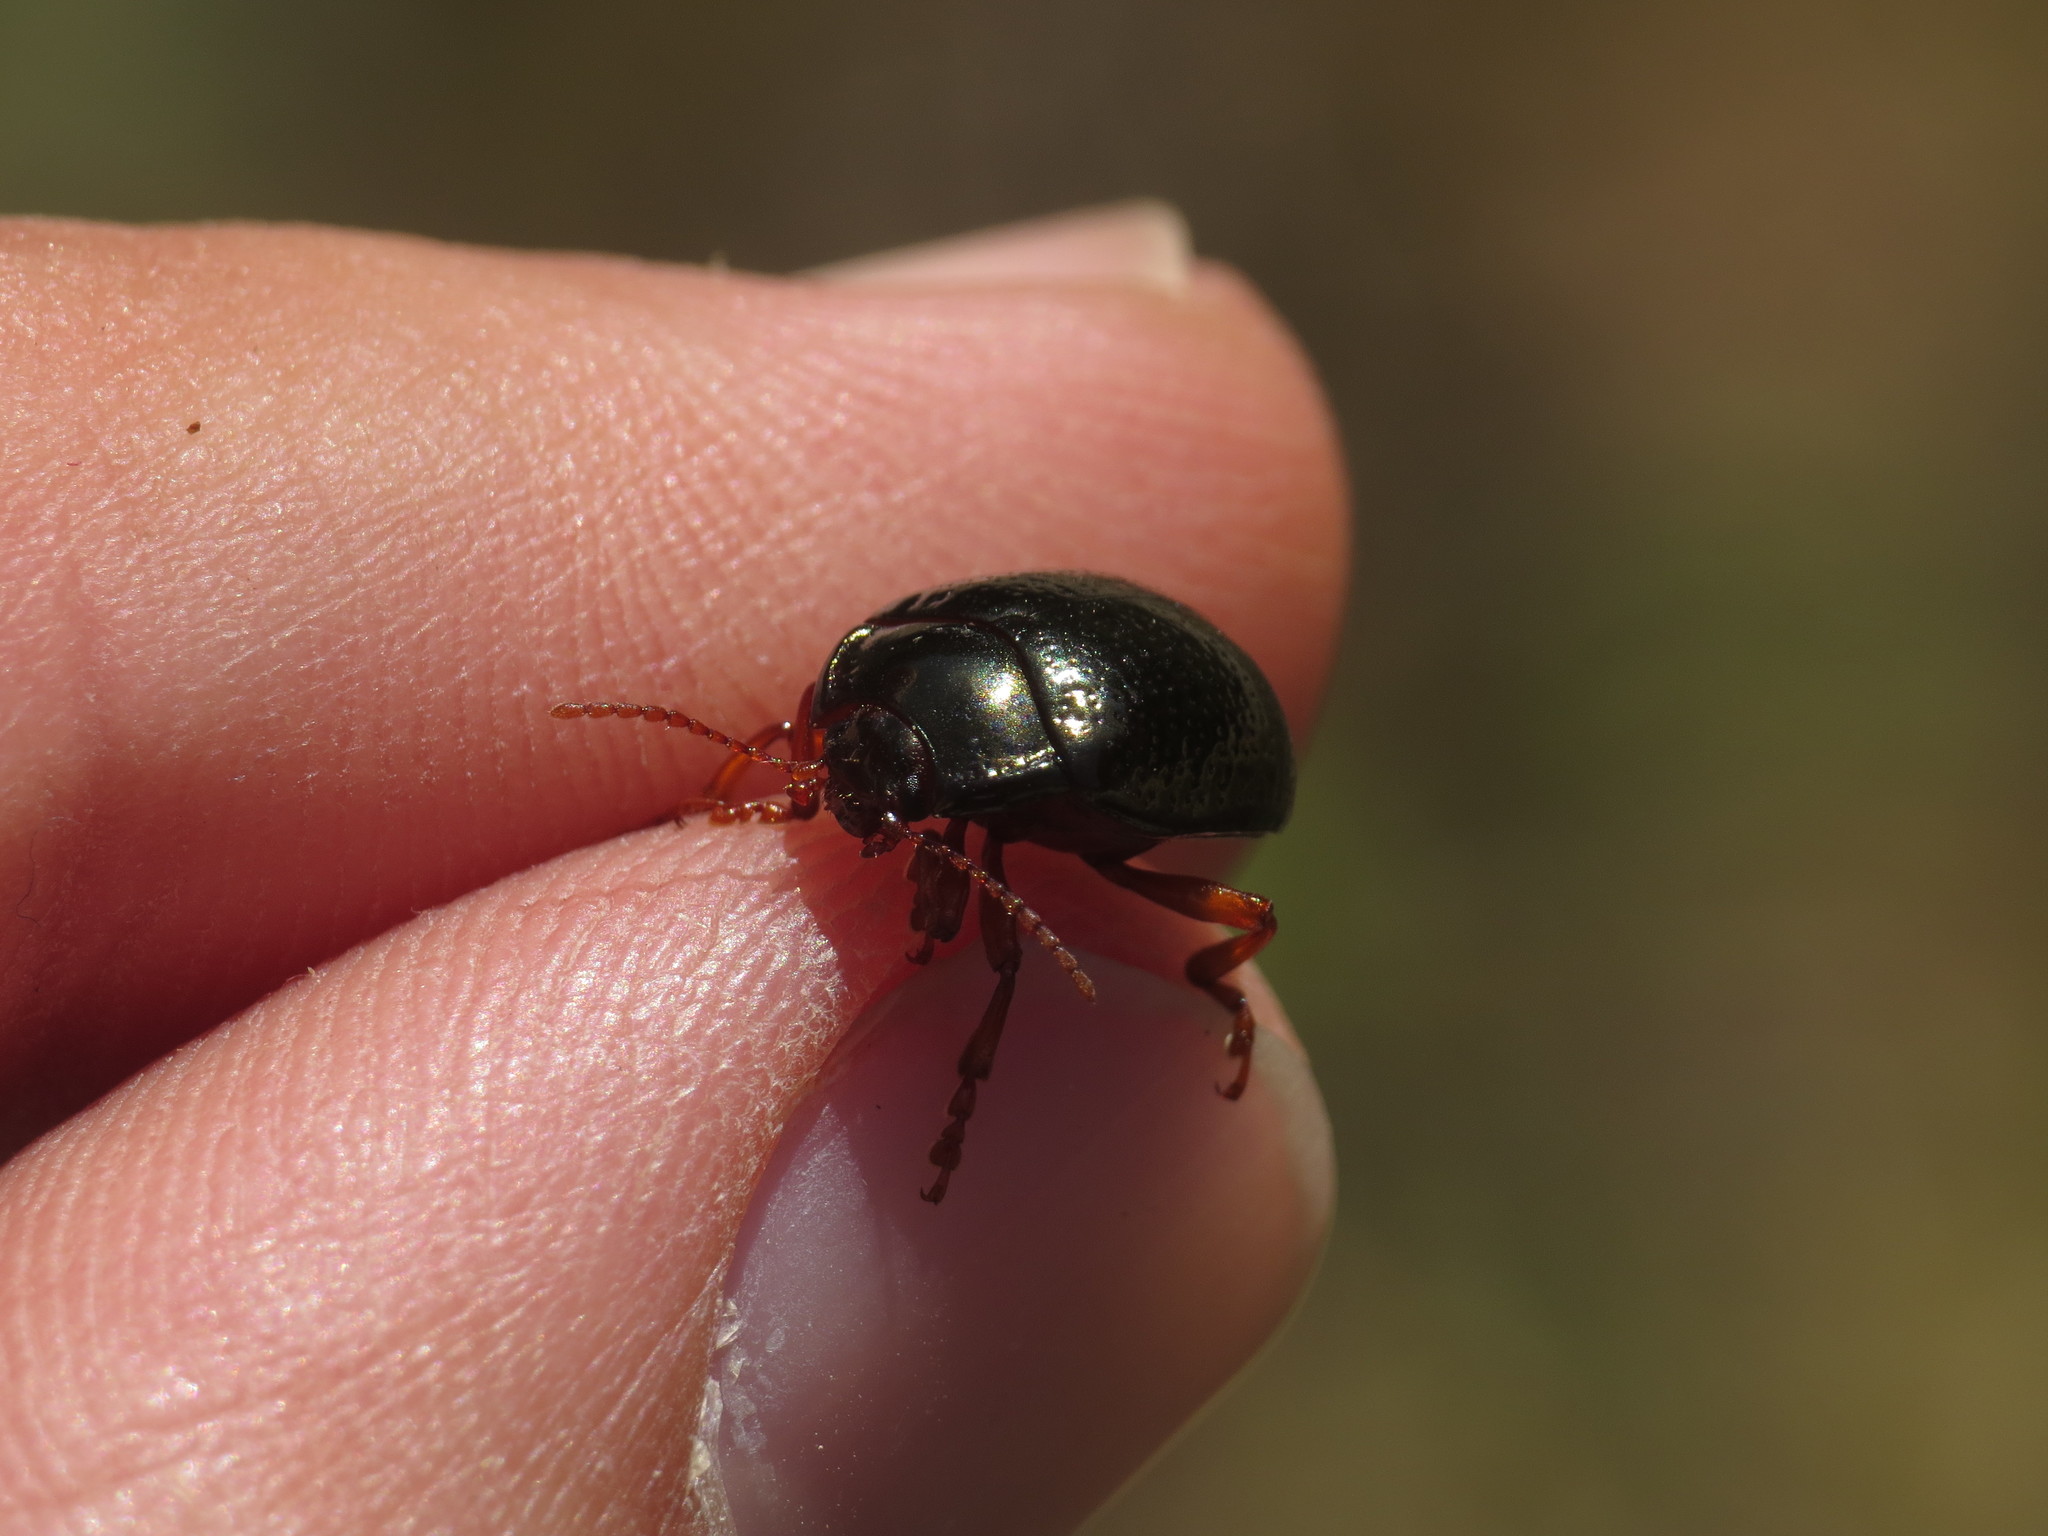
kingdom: Animalia
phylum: Arthropoda
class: Insecta
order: Coleoptera
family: Chrysomelidae
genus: Chrysolina
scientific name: Chrysolina bankii
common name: Leaf beetle
